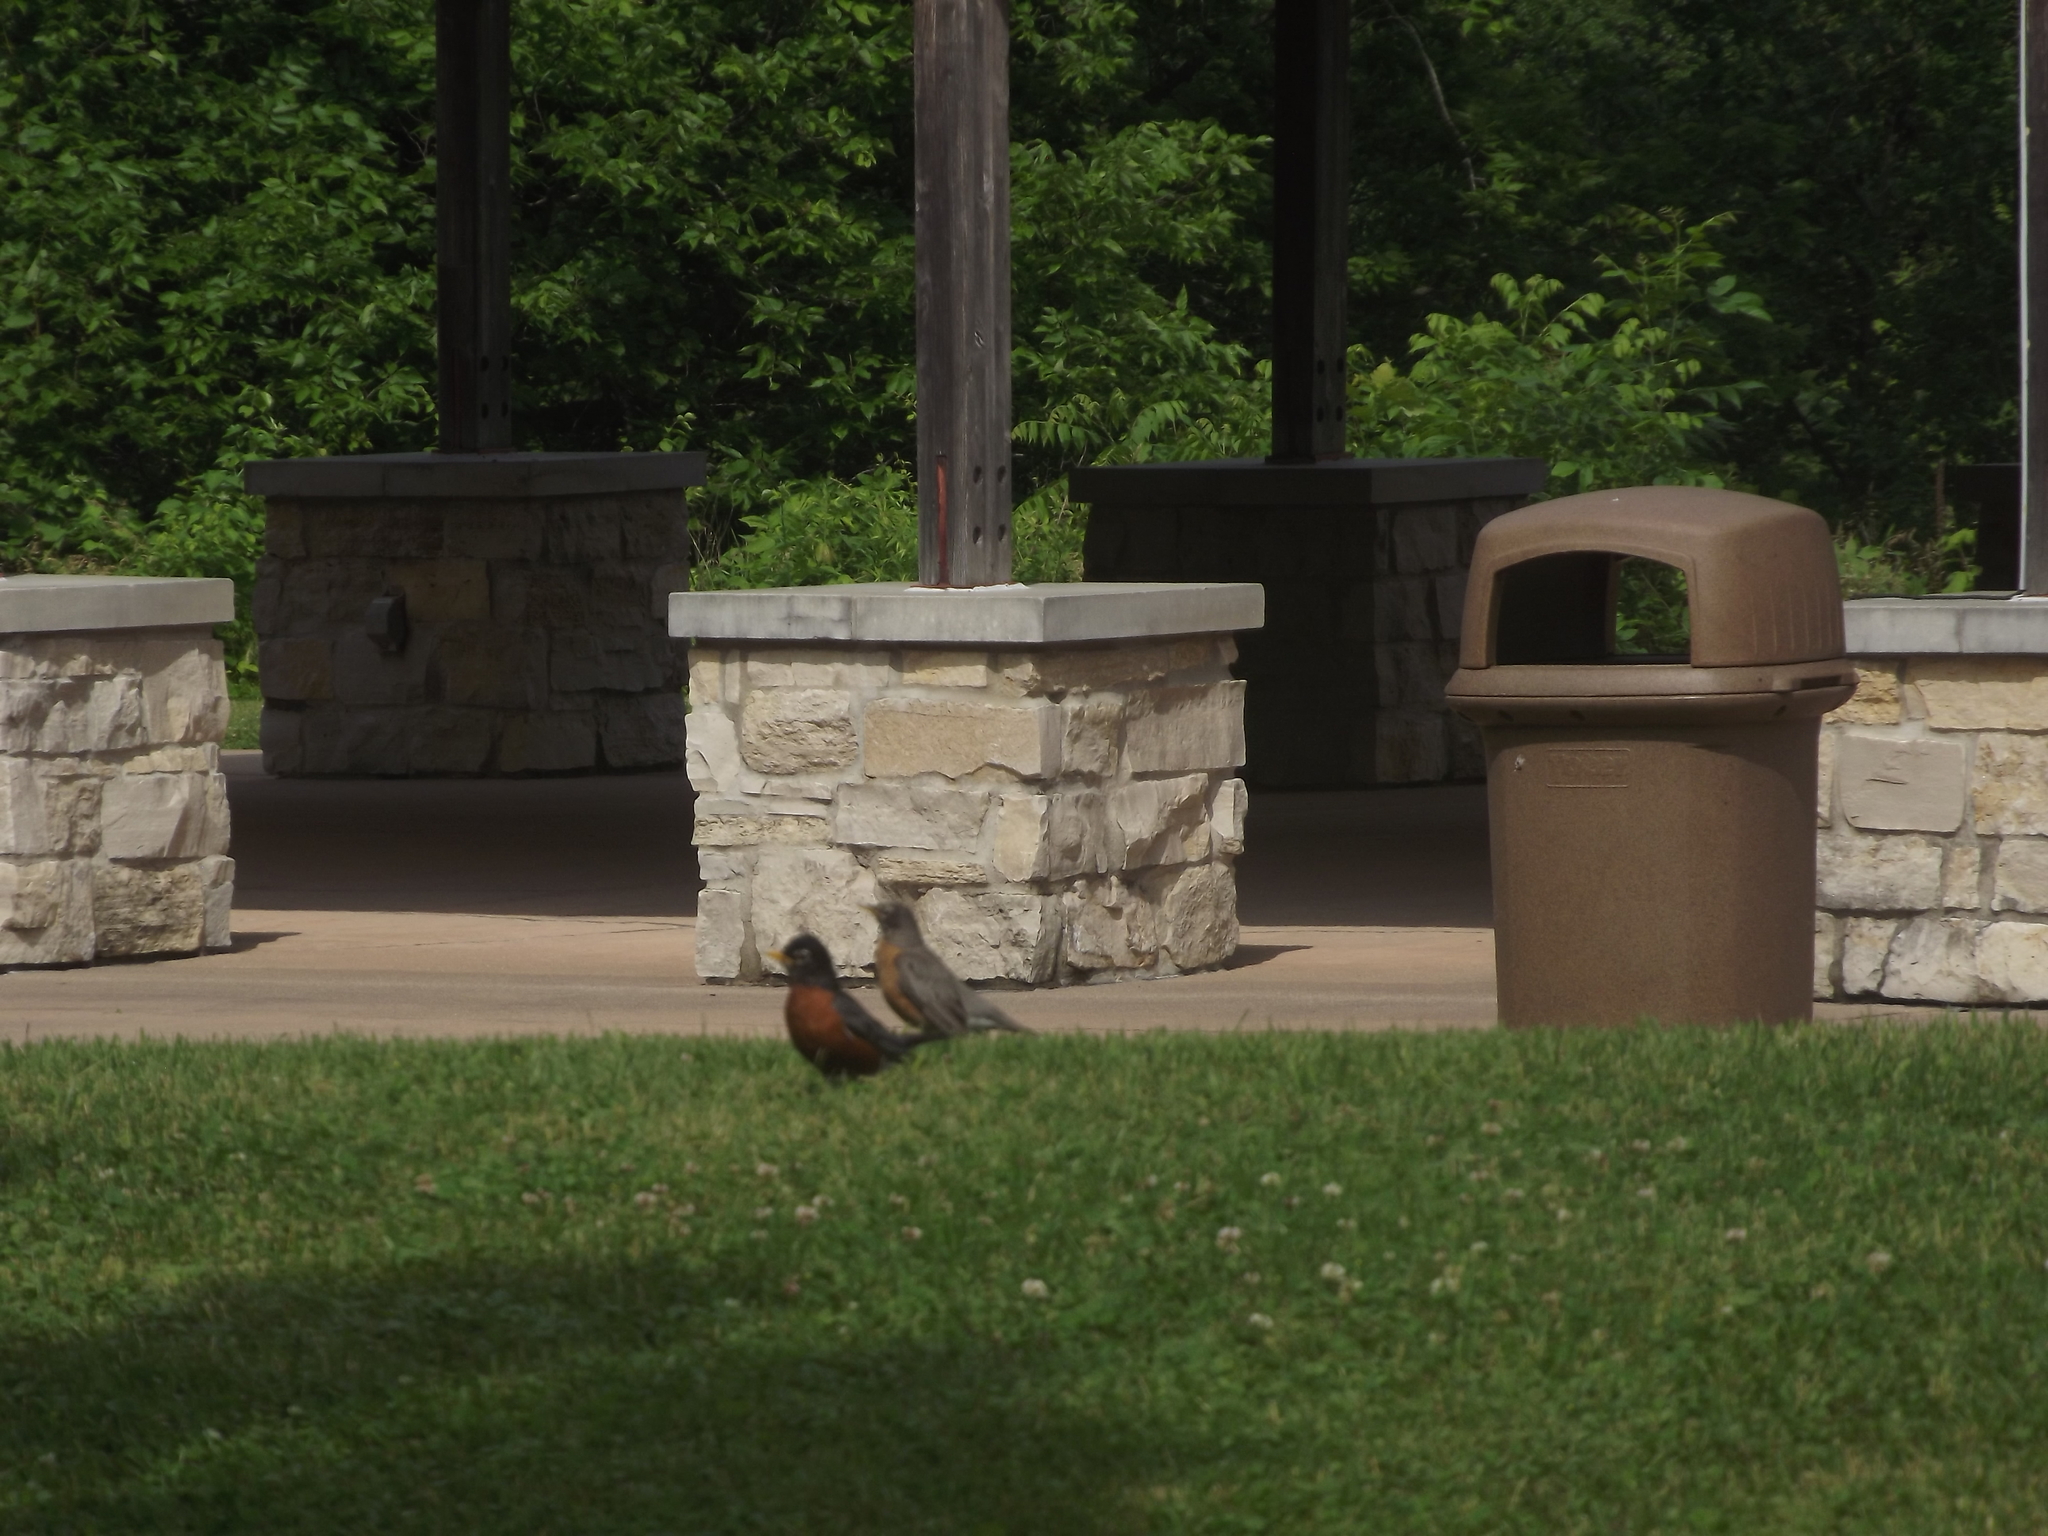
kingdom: Animalia
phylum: Chordata
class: Aves
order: Passeriformes
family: Turdidae
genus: Turdus
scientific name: Turdus migratorius
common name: American robin
